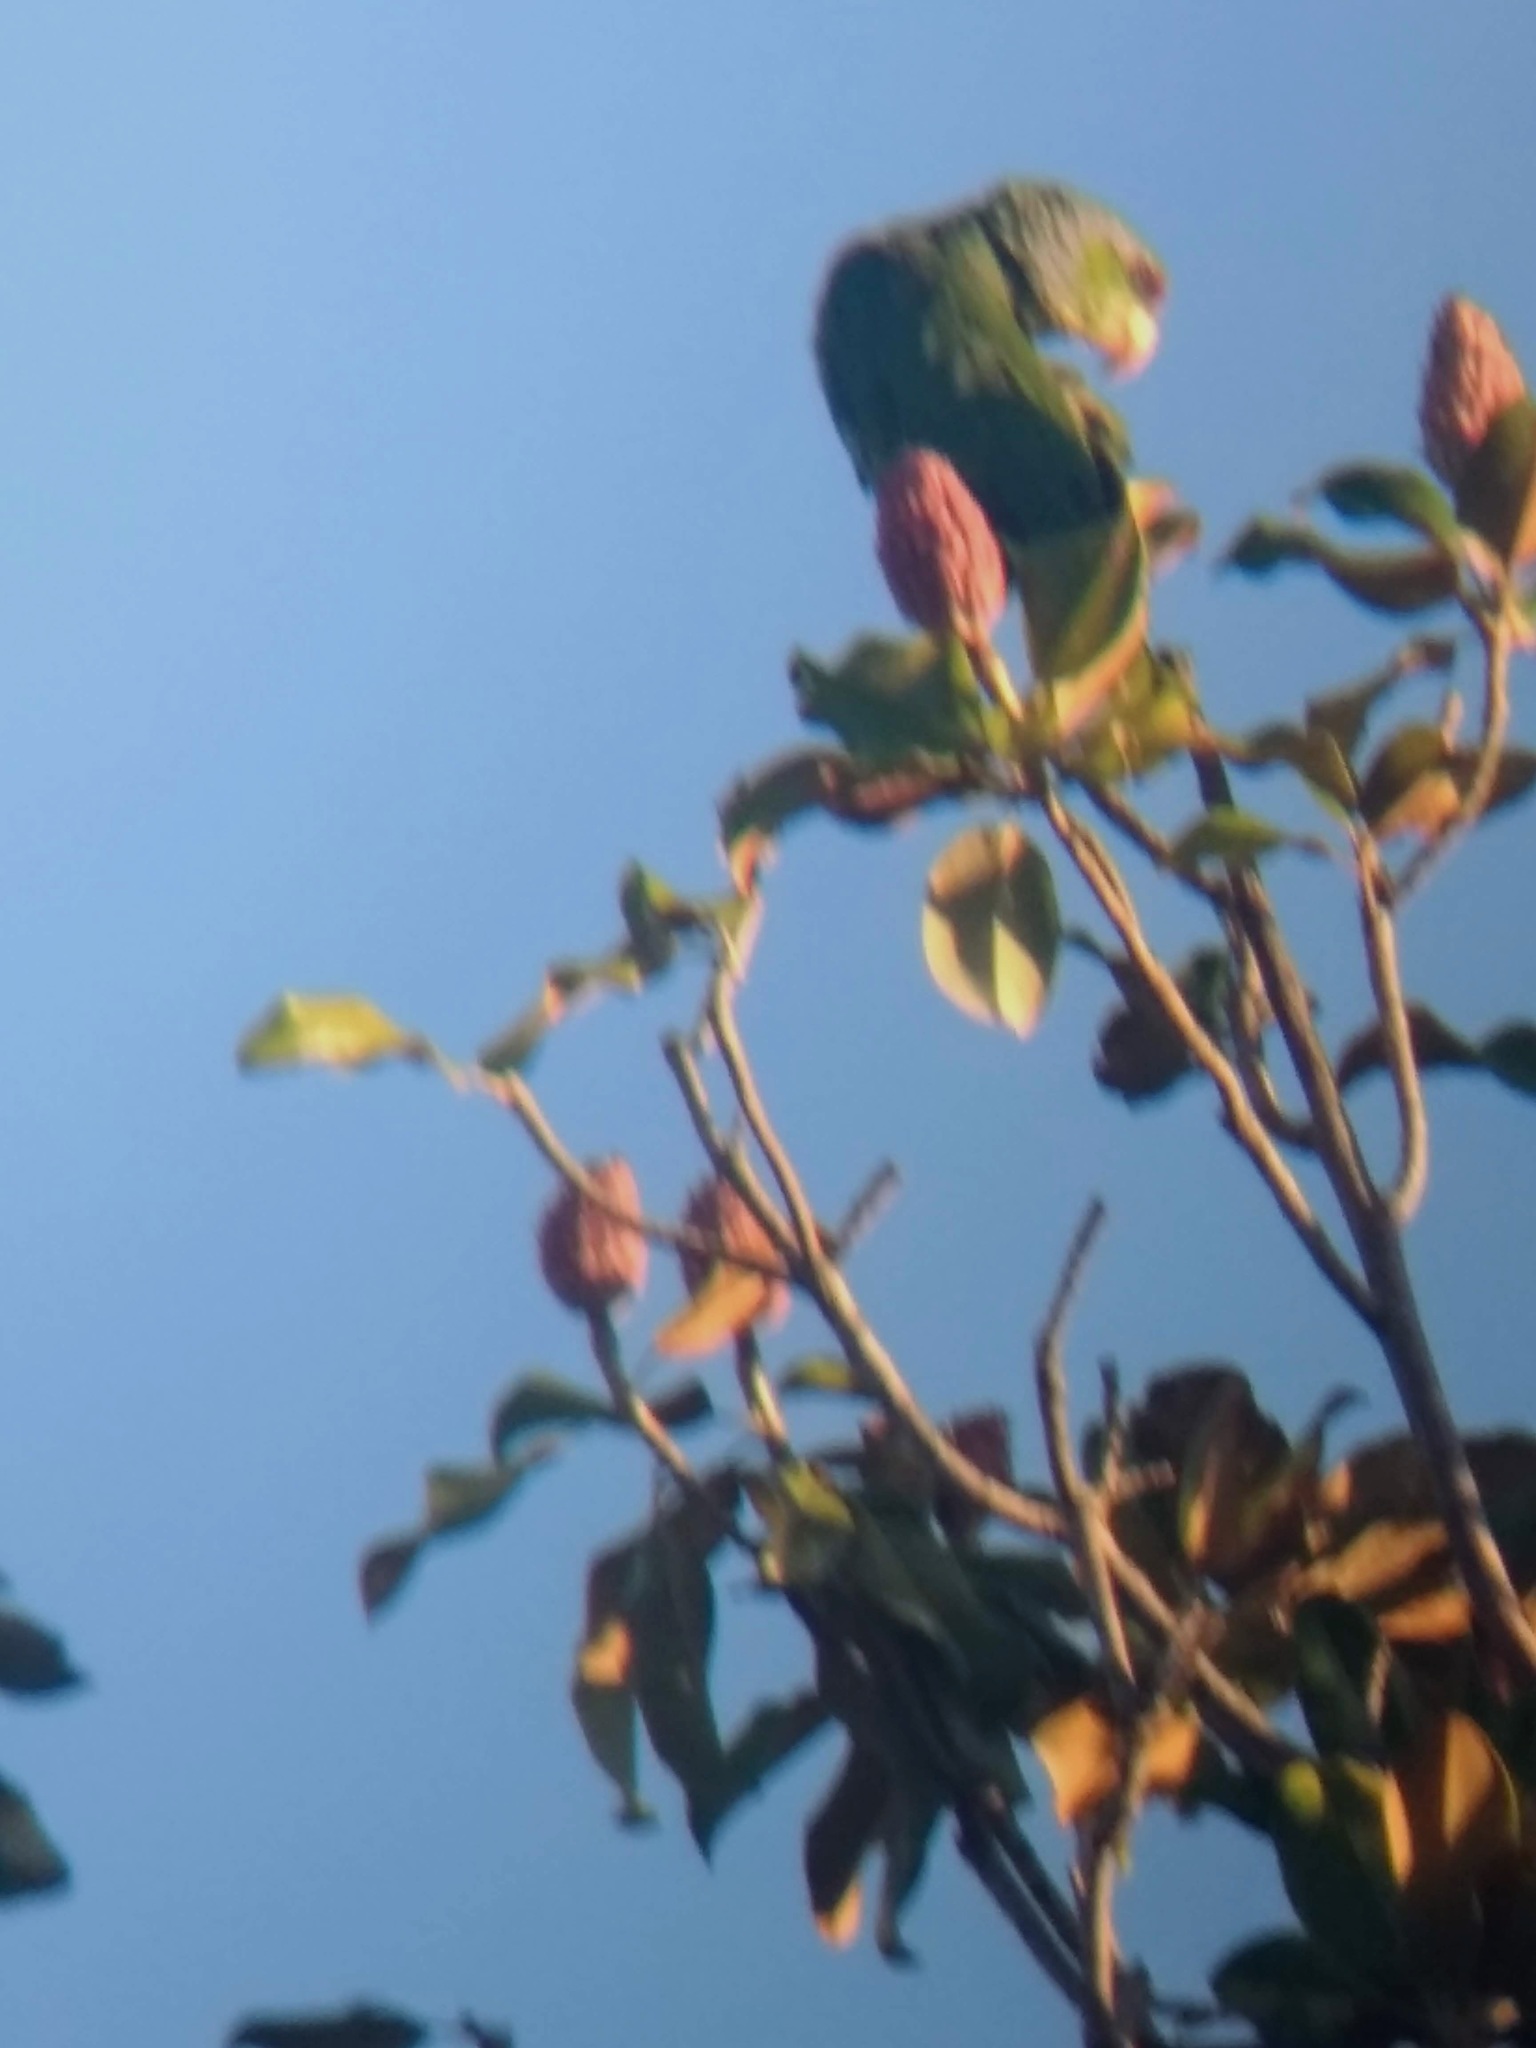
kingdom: Animalia
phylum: Chordata
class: Aves
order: Psittaciformes
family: Psittacidae
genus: Amazona
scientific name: Amazona finschi
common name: Lilac-crowned amazon
